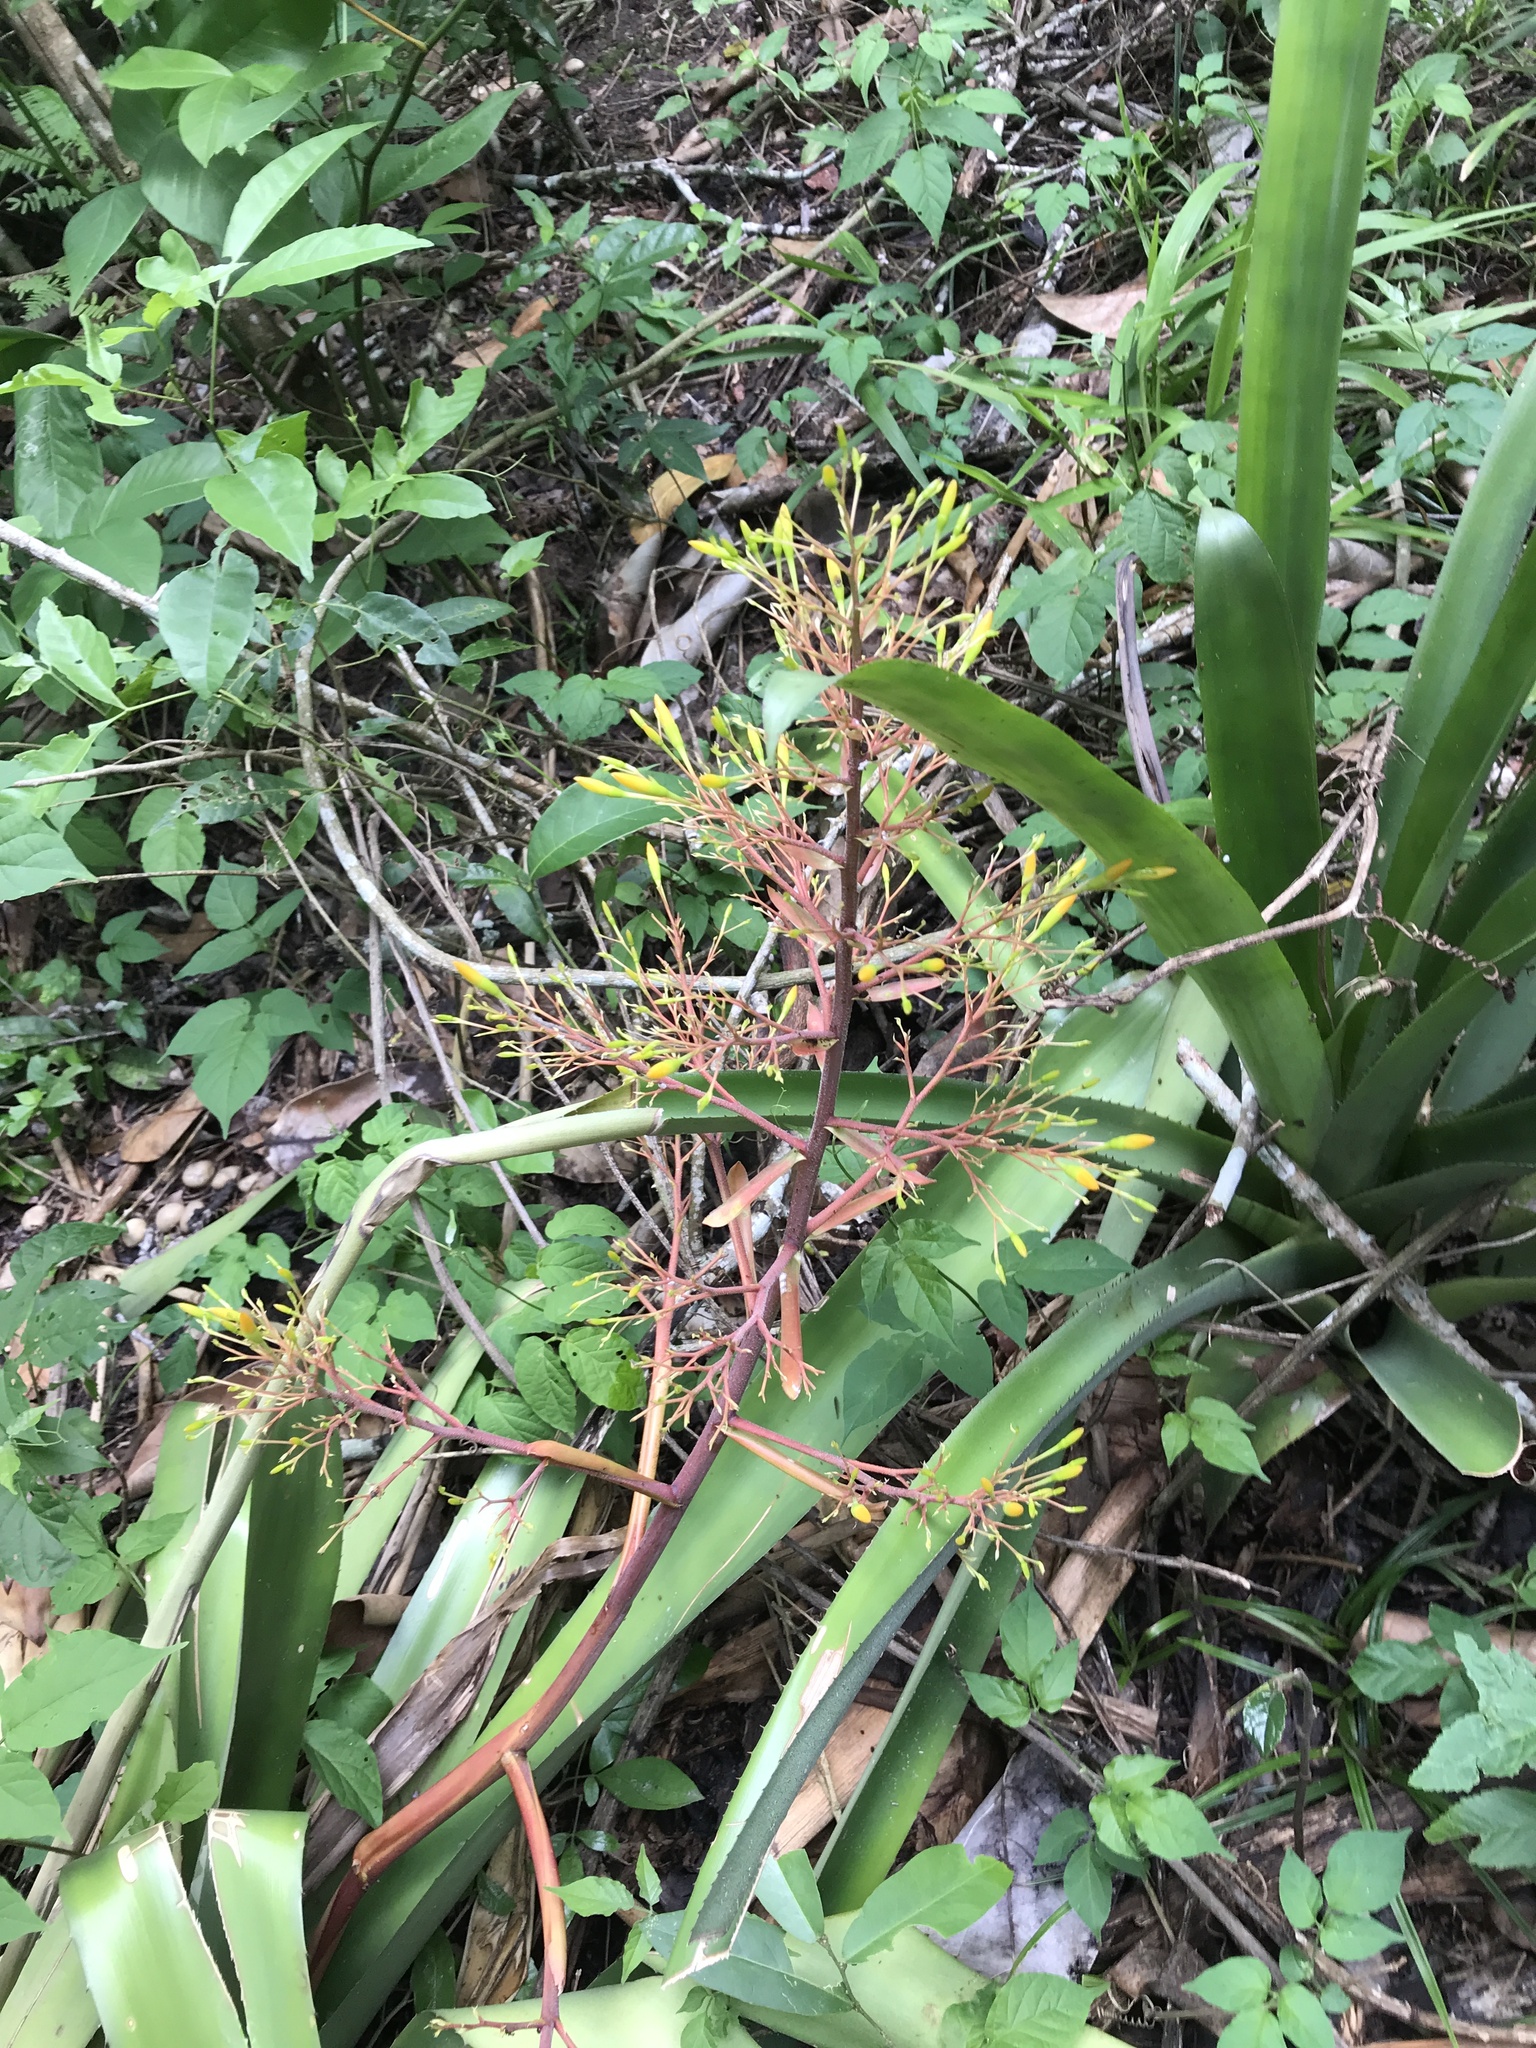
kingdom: Plantae
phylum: Tracheophyta
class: Liliopsida
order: Poales
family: Bromeliaceae
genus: Aechmea
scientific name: Aechmea leptantha
